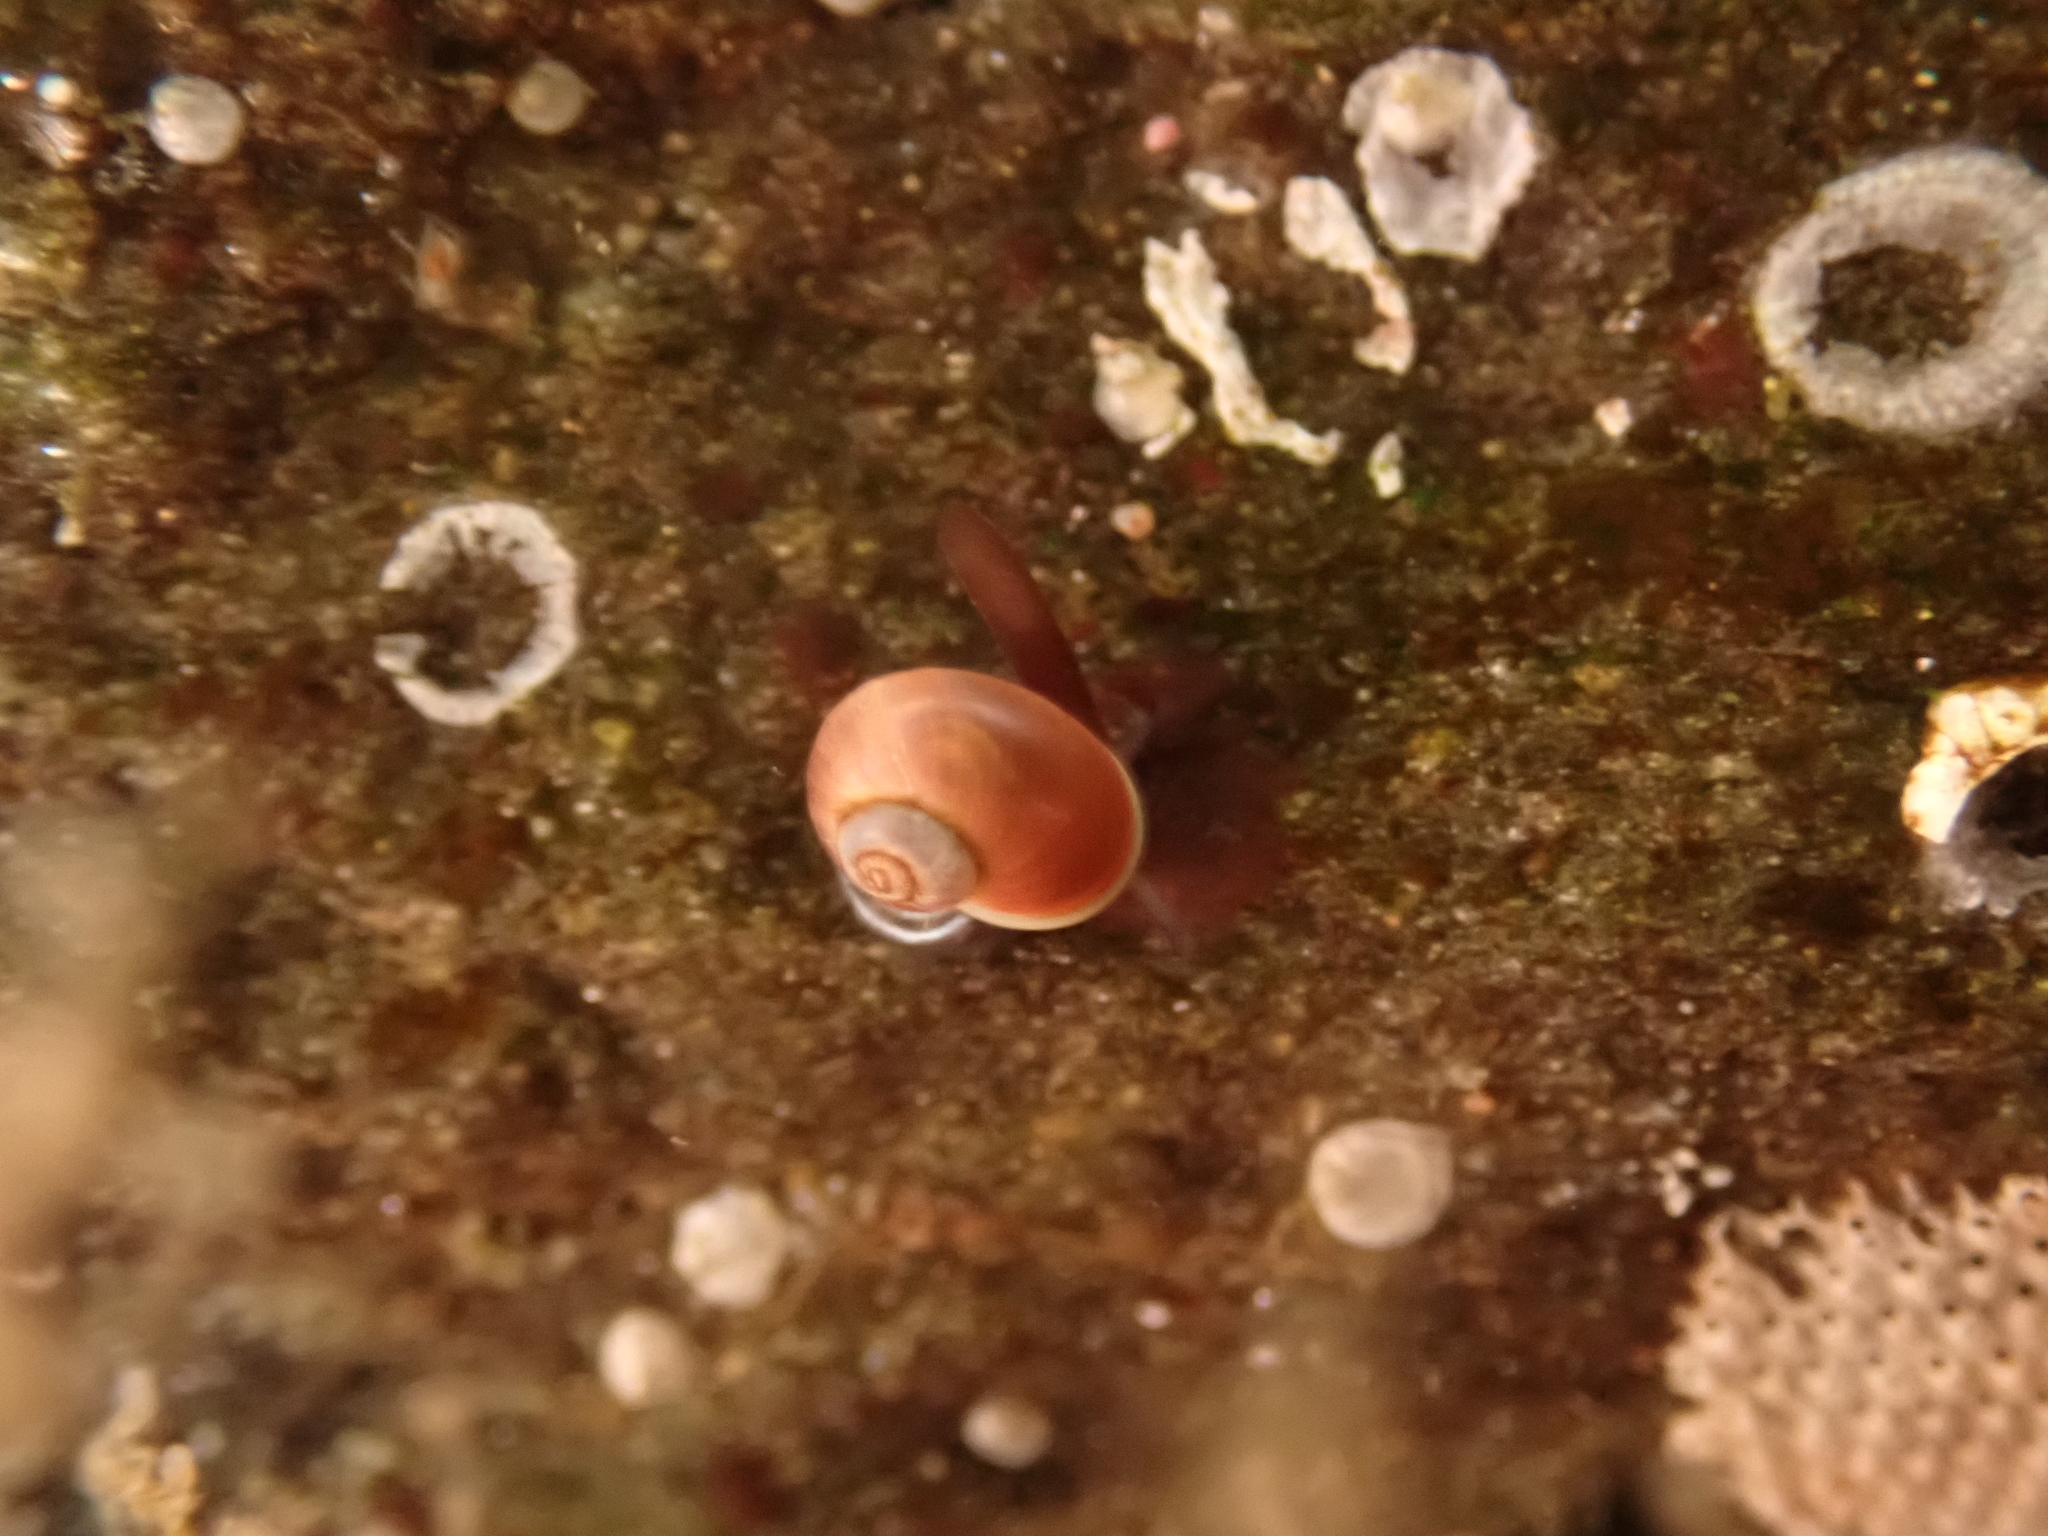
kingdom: Animalia
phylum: Mollusca
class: Gastropoda
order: Trochida
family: Margaritidae
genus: Margarites
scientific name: Margarites helicinus
